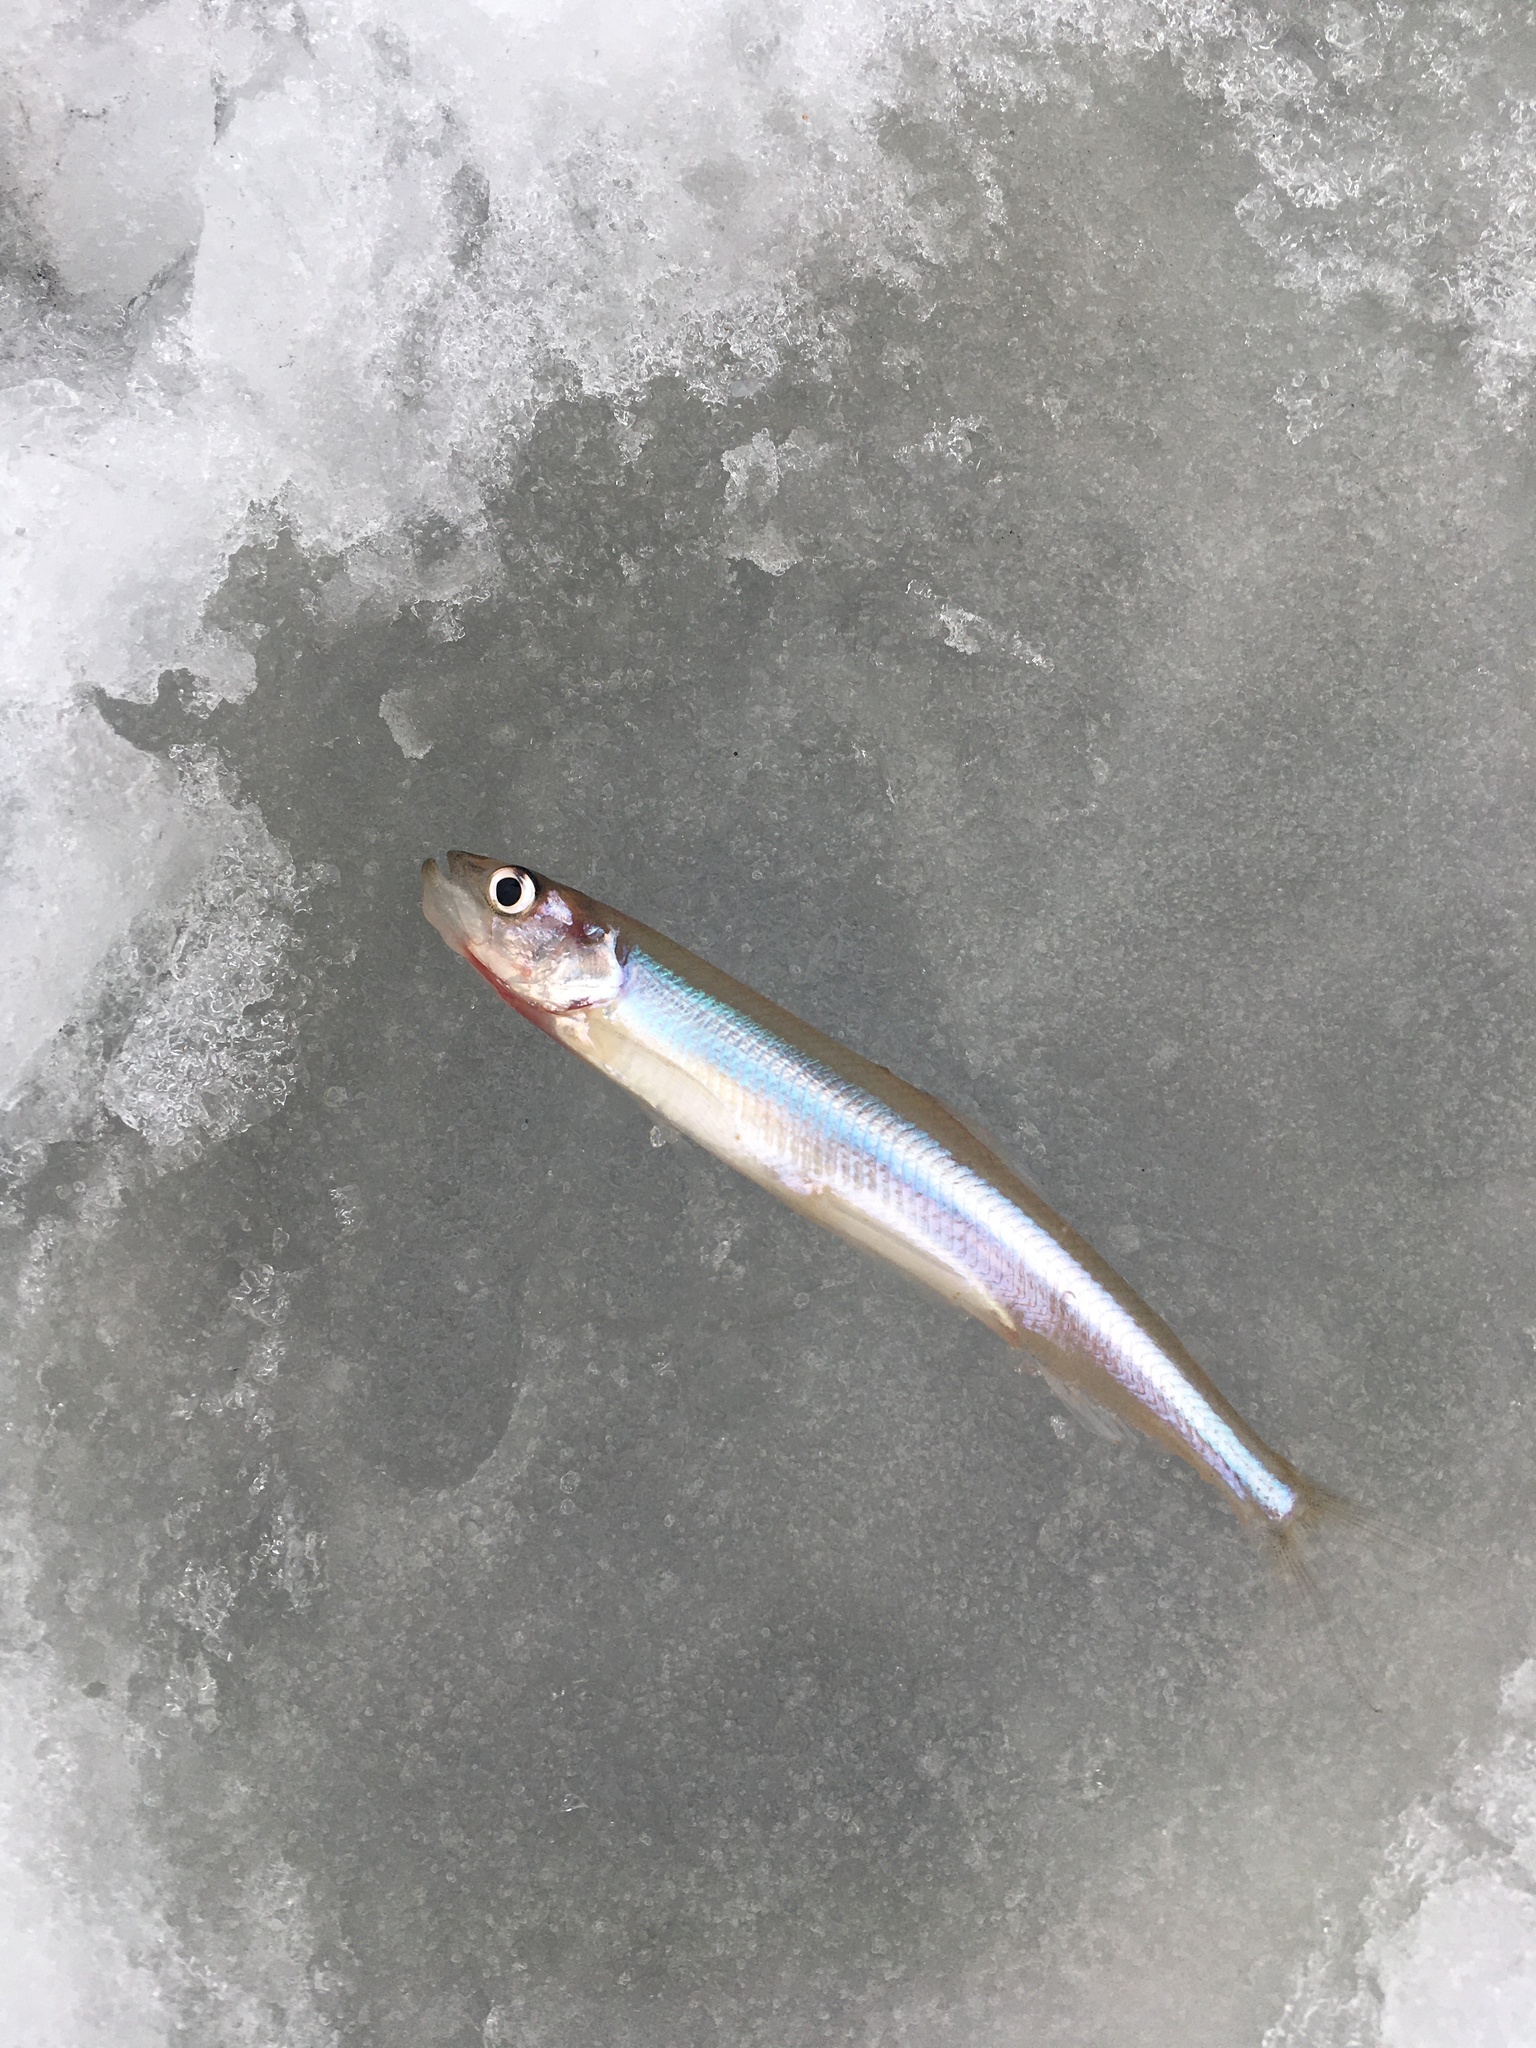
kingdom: Animalia
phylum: Chordata
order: Osmeriformes
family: Osmeridae
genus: Osmerus
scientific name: Osmerus eperlanus
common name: Smelt
